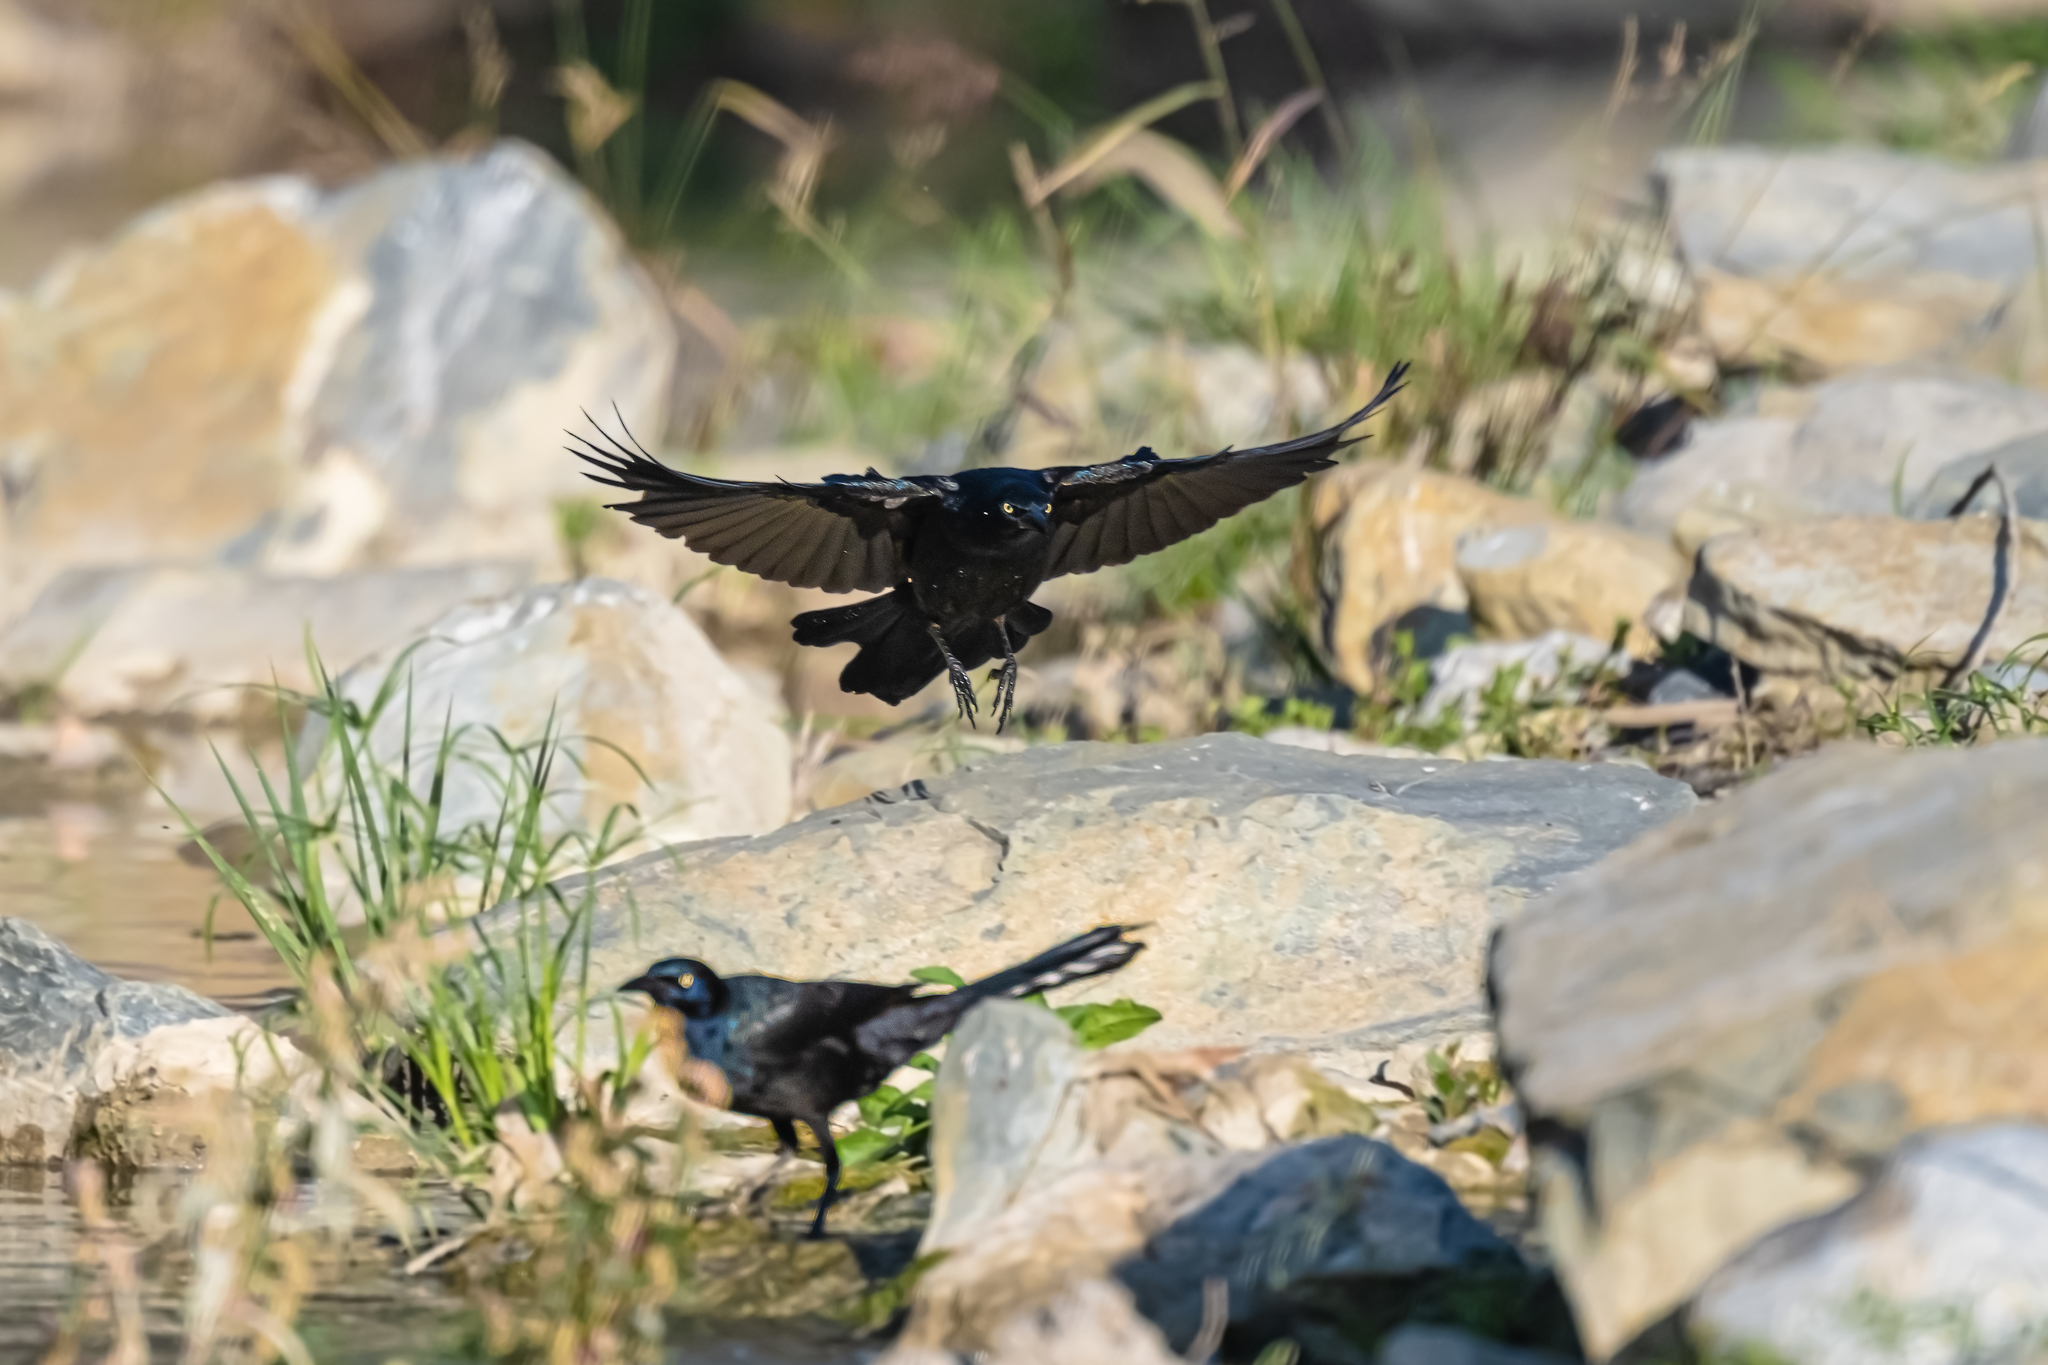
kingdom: Animalia
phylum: Chordata
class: Aves
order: Passeriformes
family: Icteridae
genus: Quiscalus
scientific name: Quiscalus mexicanus
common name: Great-tailed grackle
